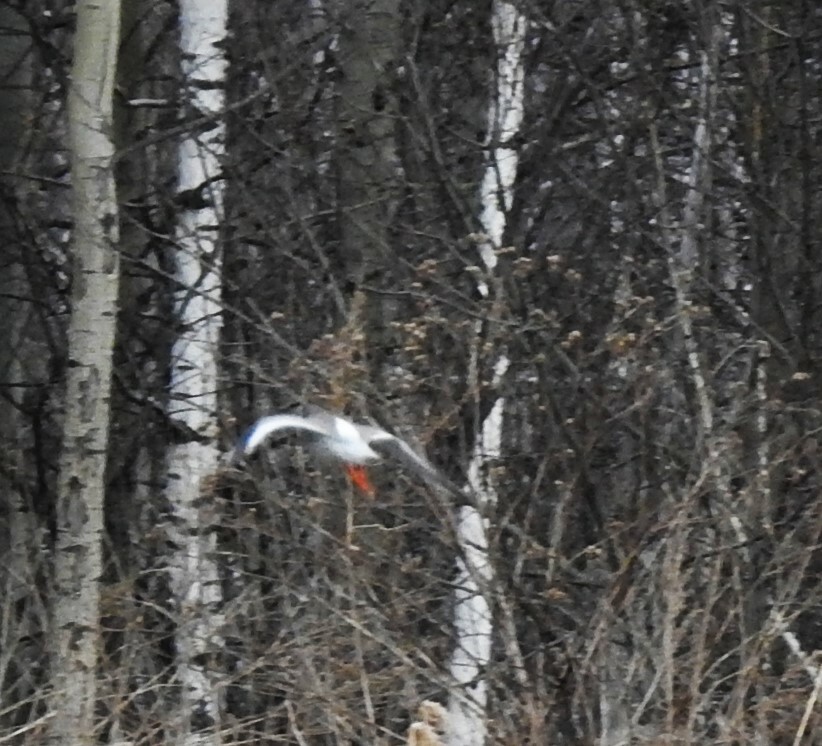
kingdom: Animalia
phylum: Chordata
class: Aves
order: Charadriiformes
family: Scolopacidae
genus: Tringa
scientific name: Tringa totanus
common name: Common redshank
